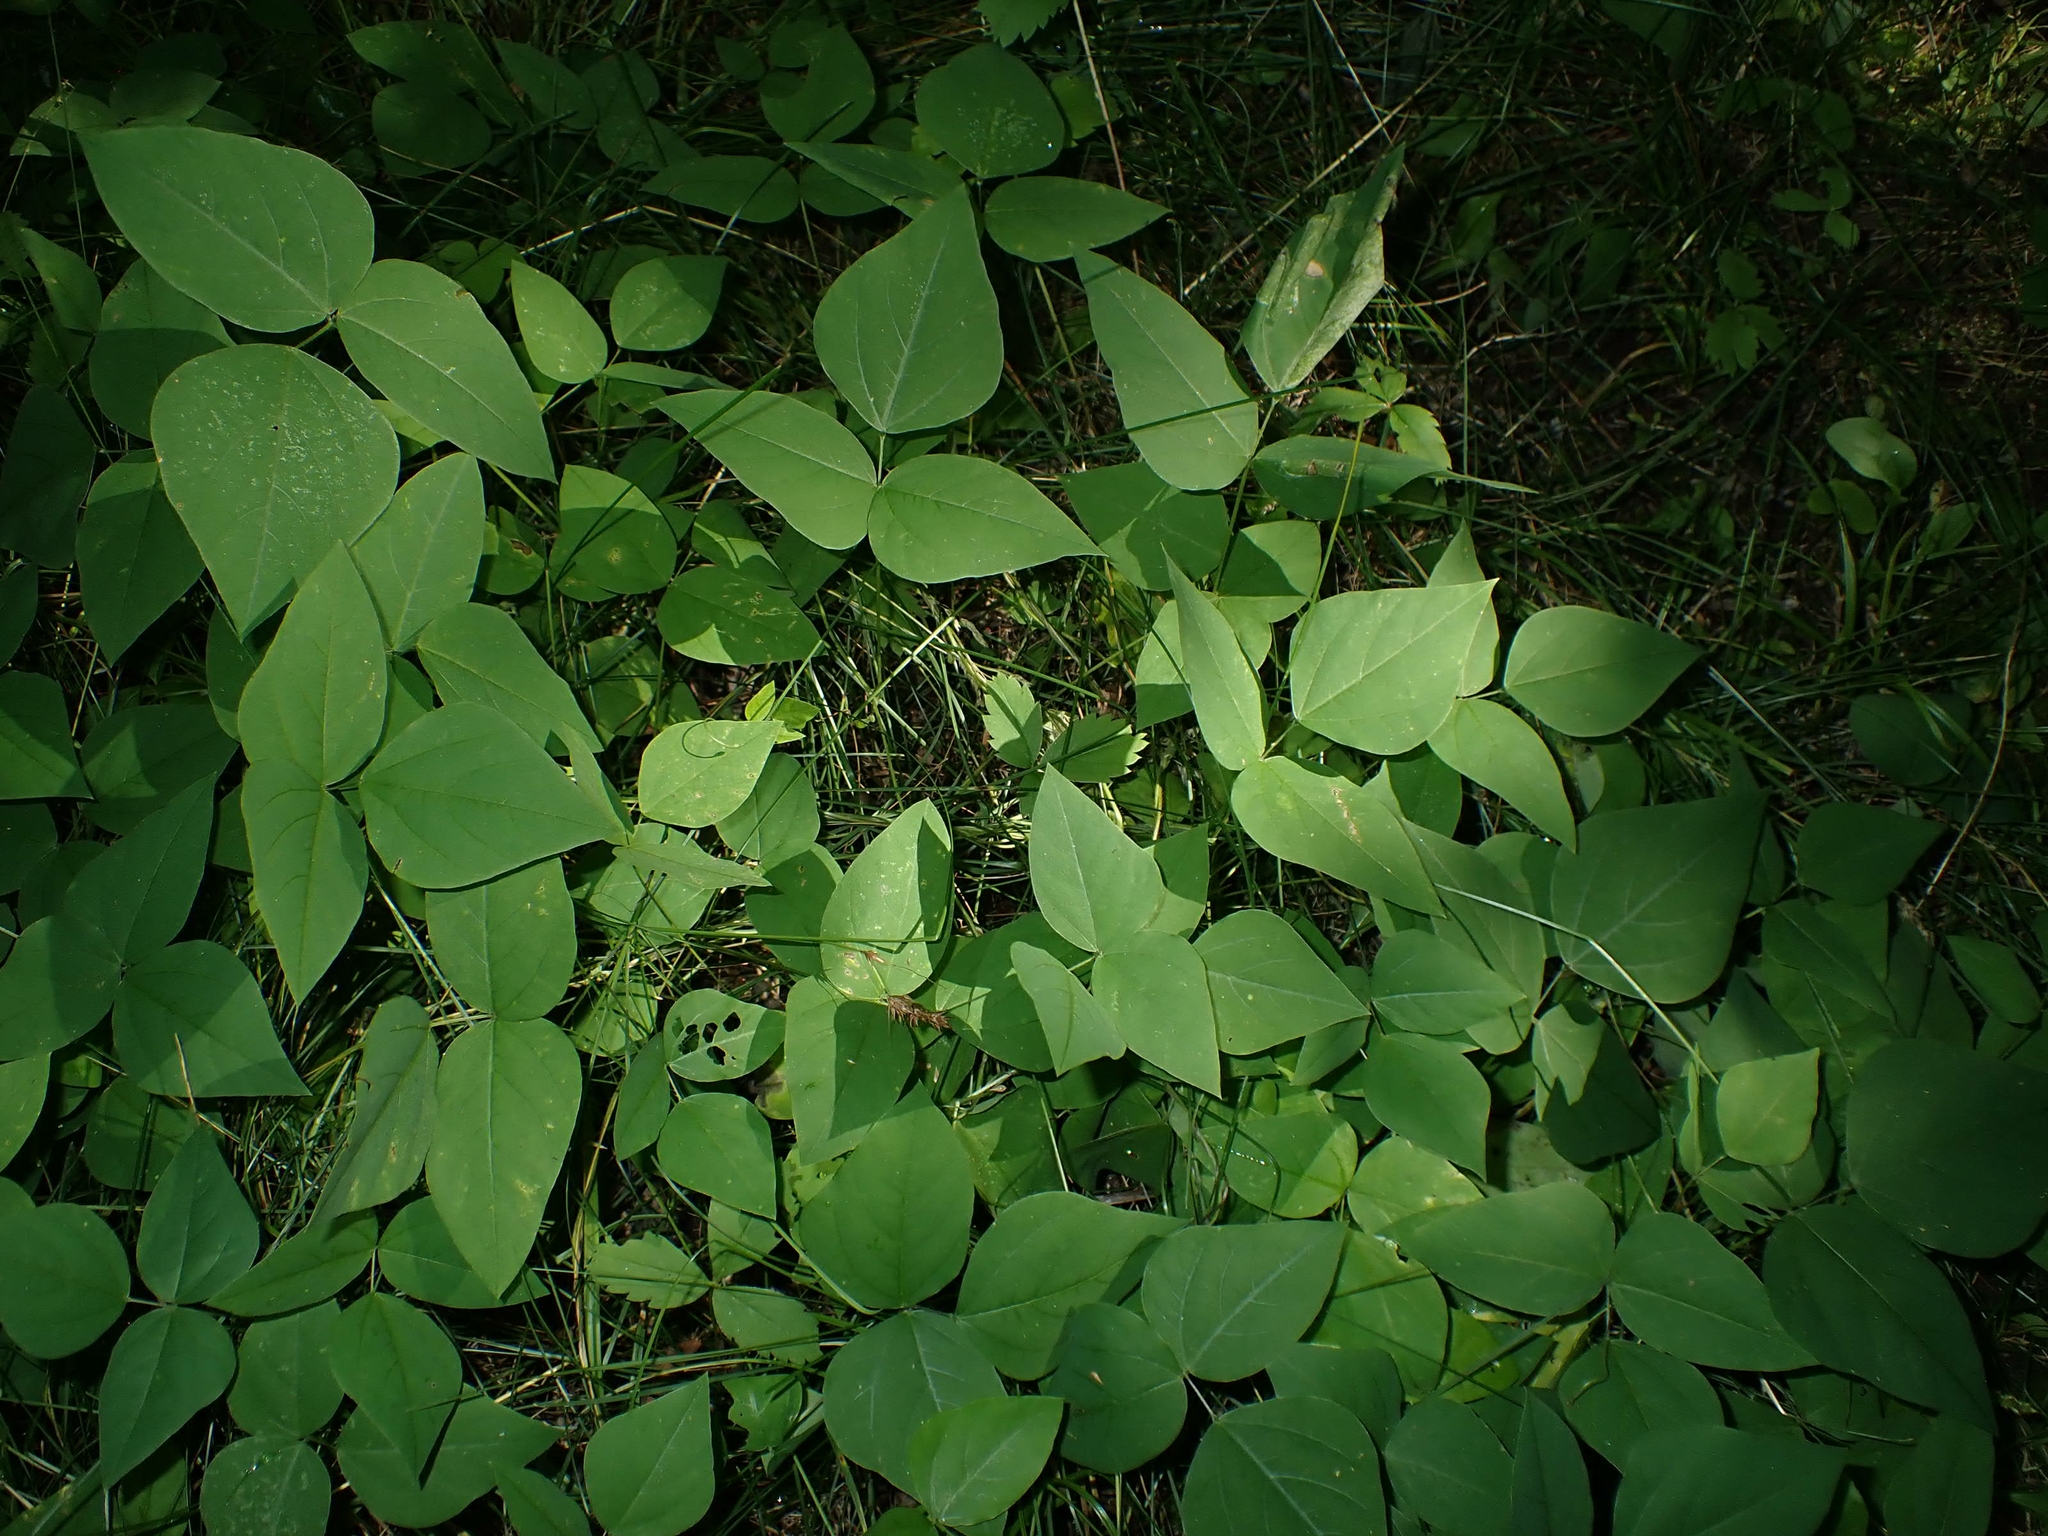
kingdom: Plantae
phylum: Tracheophyta
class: Magnoliopsida
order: Fabales
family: Fabaceae
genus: Amphicarpaea
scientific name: Amphicarpaea bracteata
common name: American hog peanut
